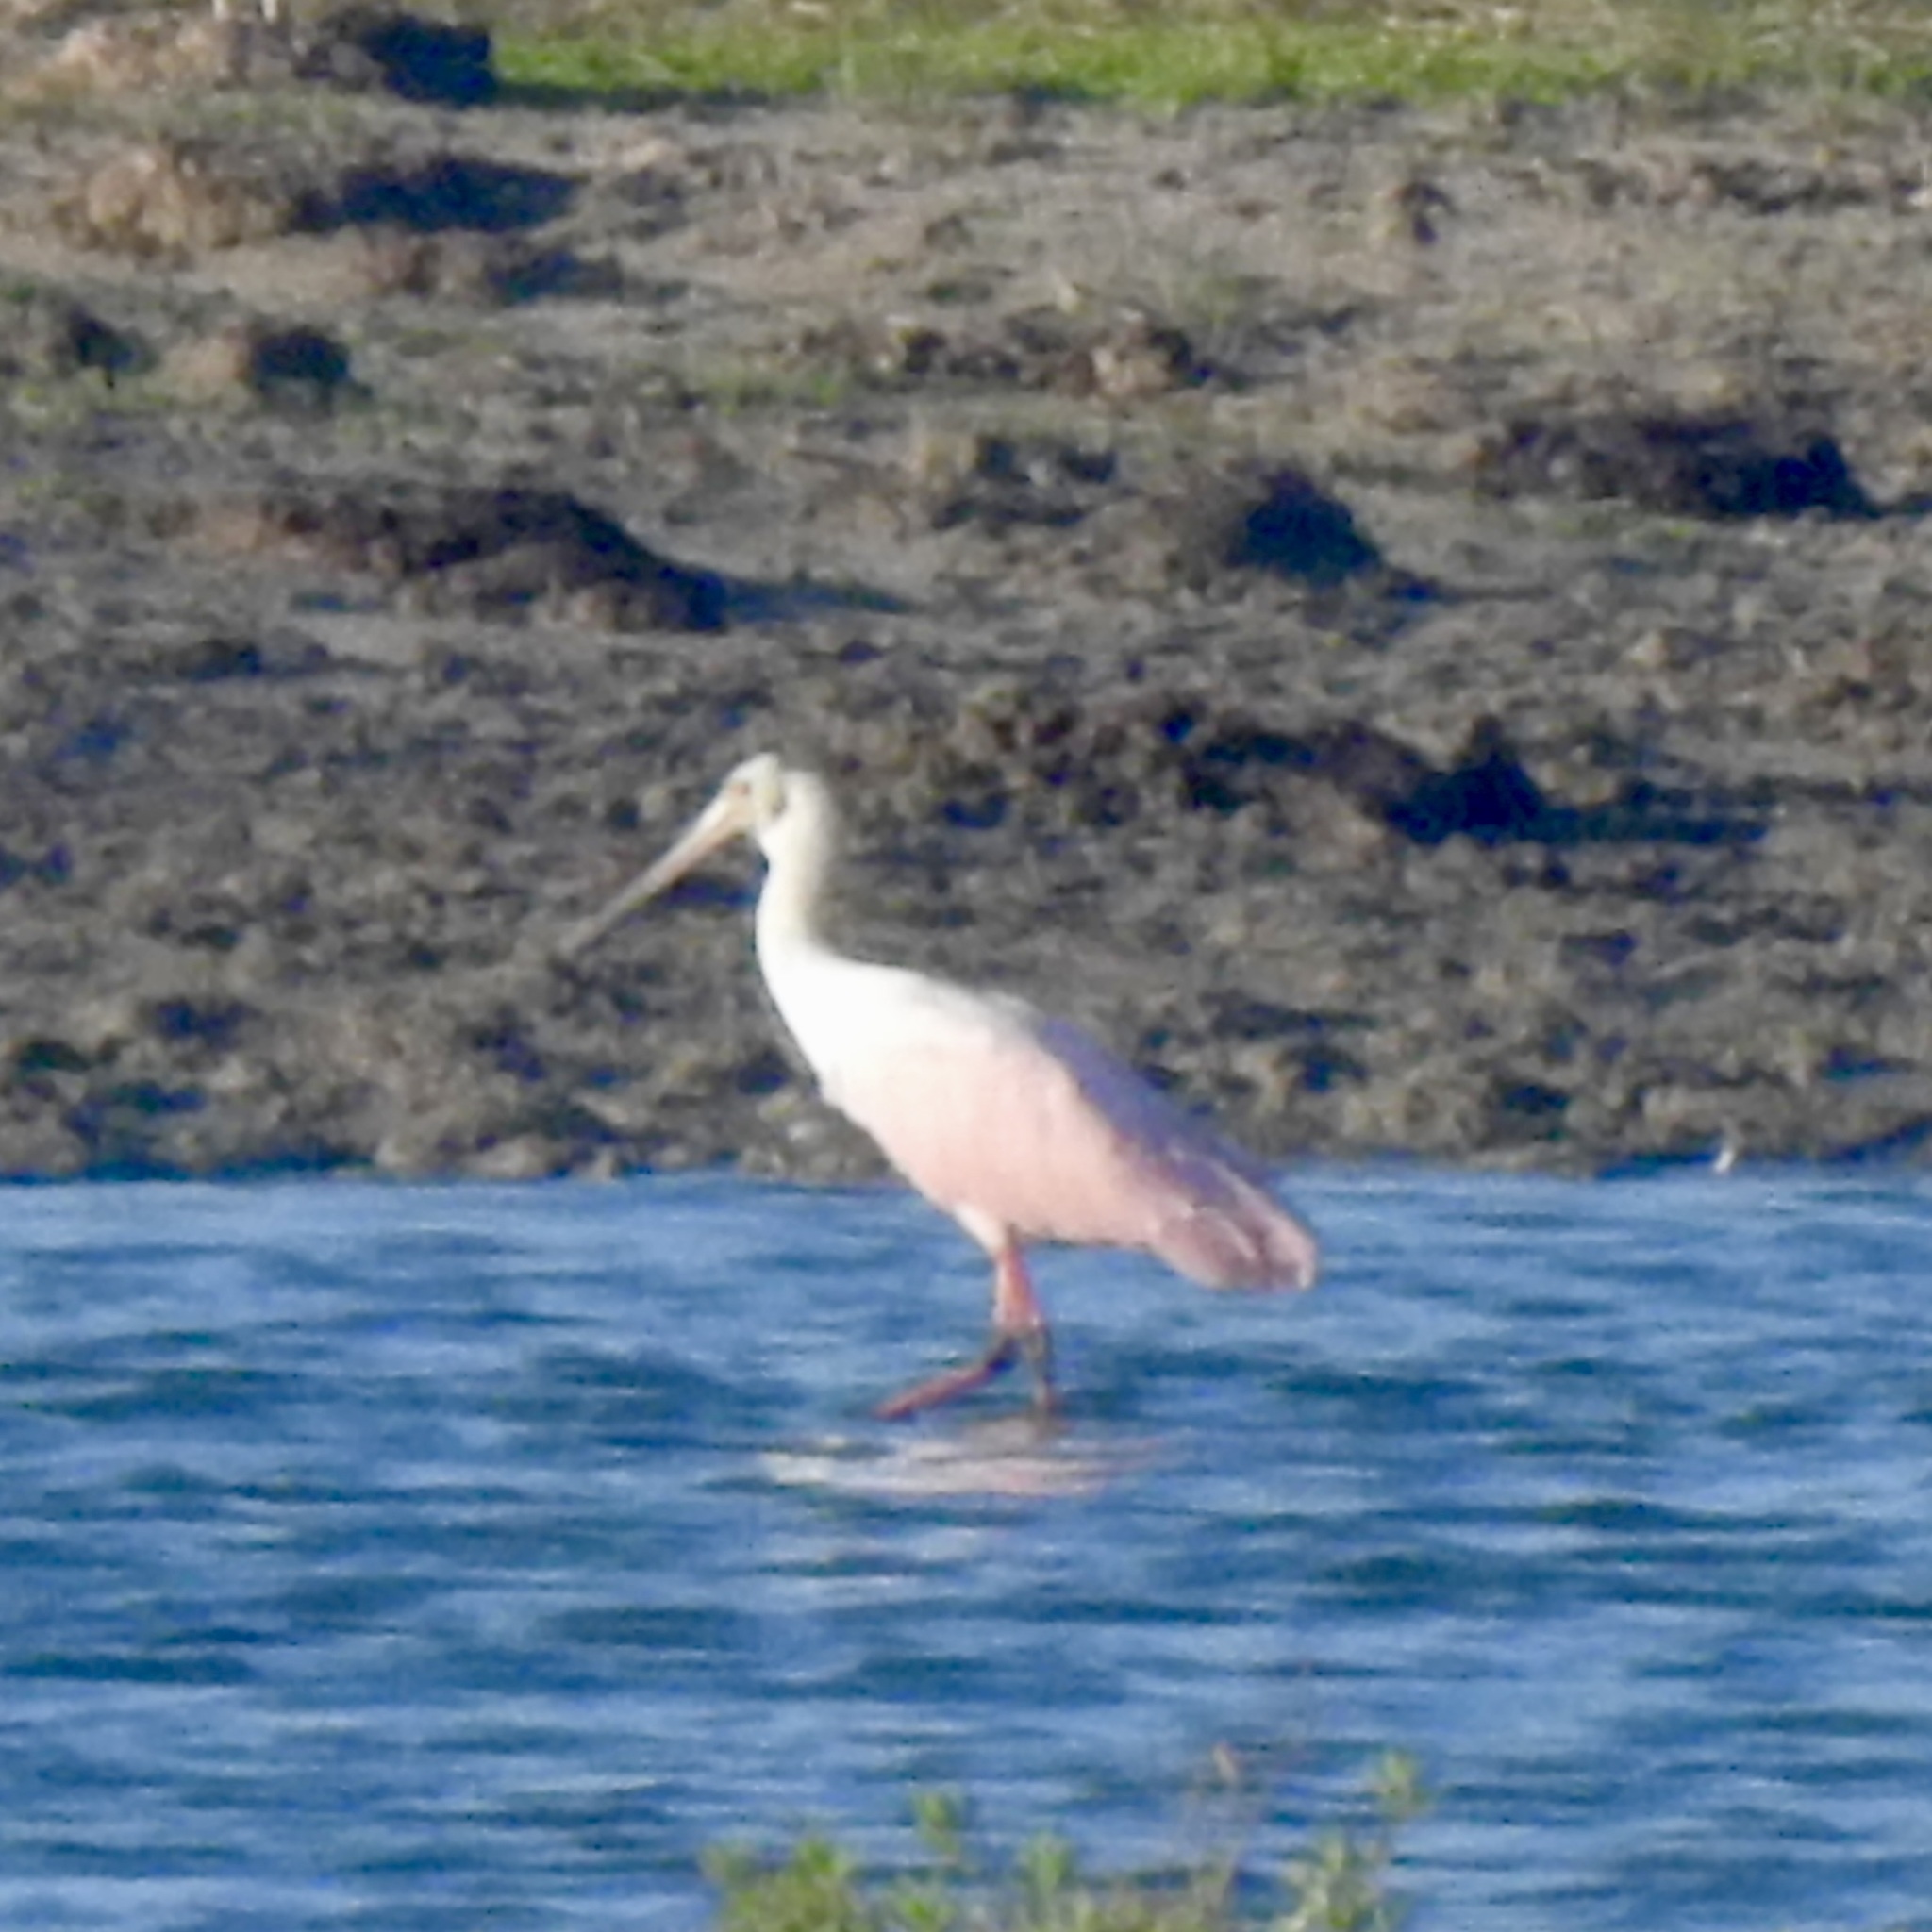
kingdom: Animalia
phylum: Chordata
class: Aves
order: Pelecaniformes
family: Threskiornithidae
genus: Platalea
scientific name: Platalea ajaja
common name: Roseate spoonbill
